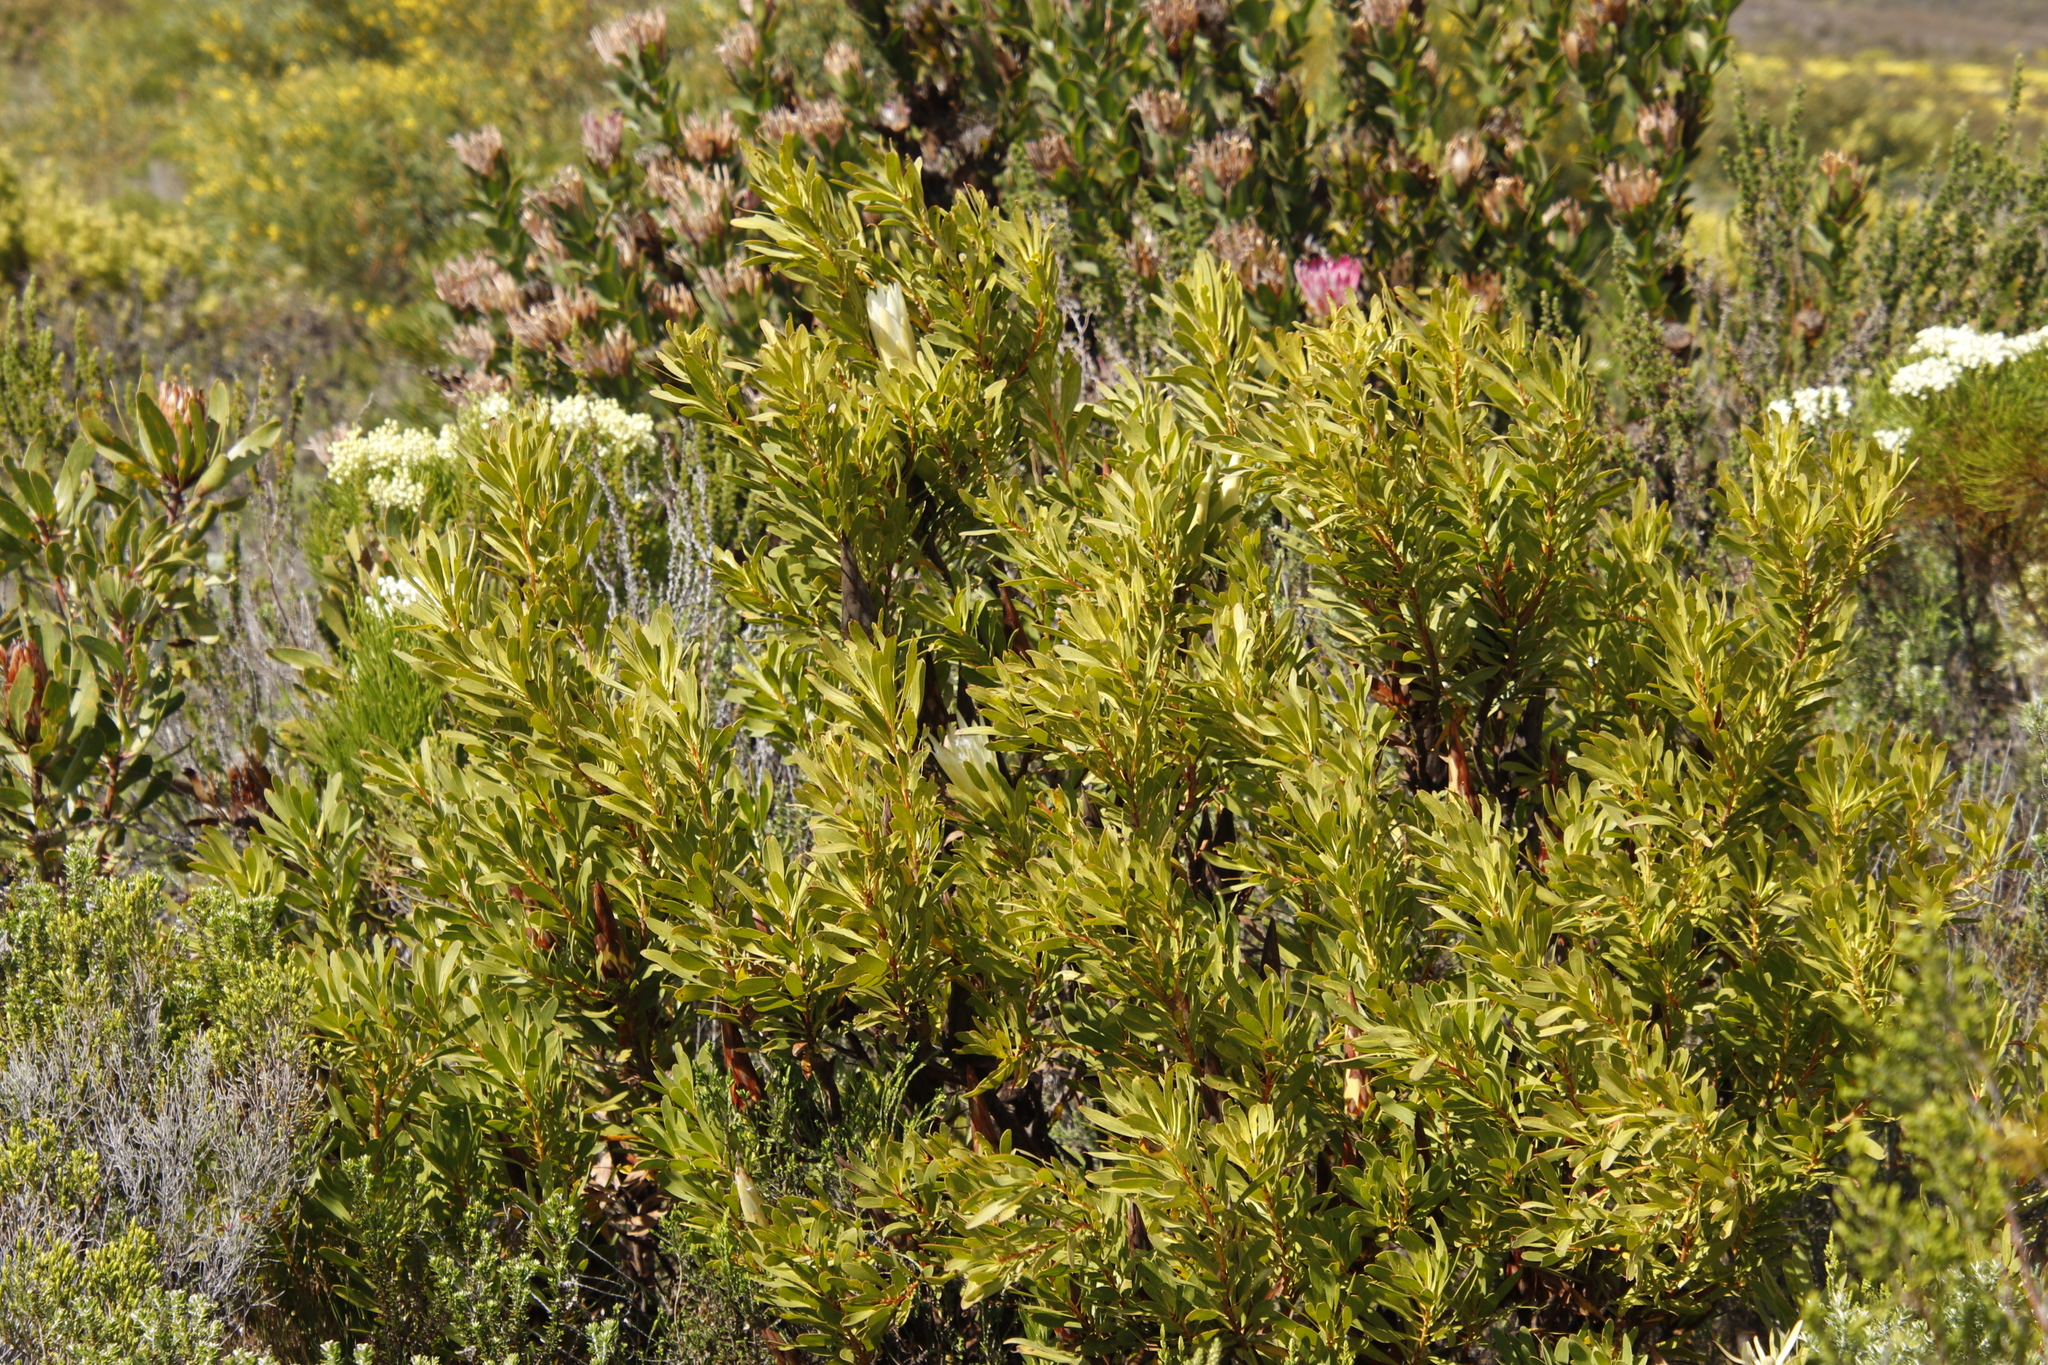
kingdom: Plantae
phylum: Tracheophyta
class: Magnoliopsida
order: Proteales
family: Proteaceae
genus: Protea
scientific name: Protea repens
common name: Sugarbush
